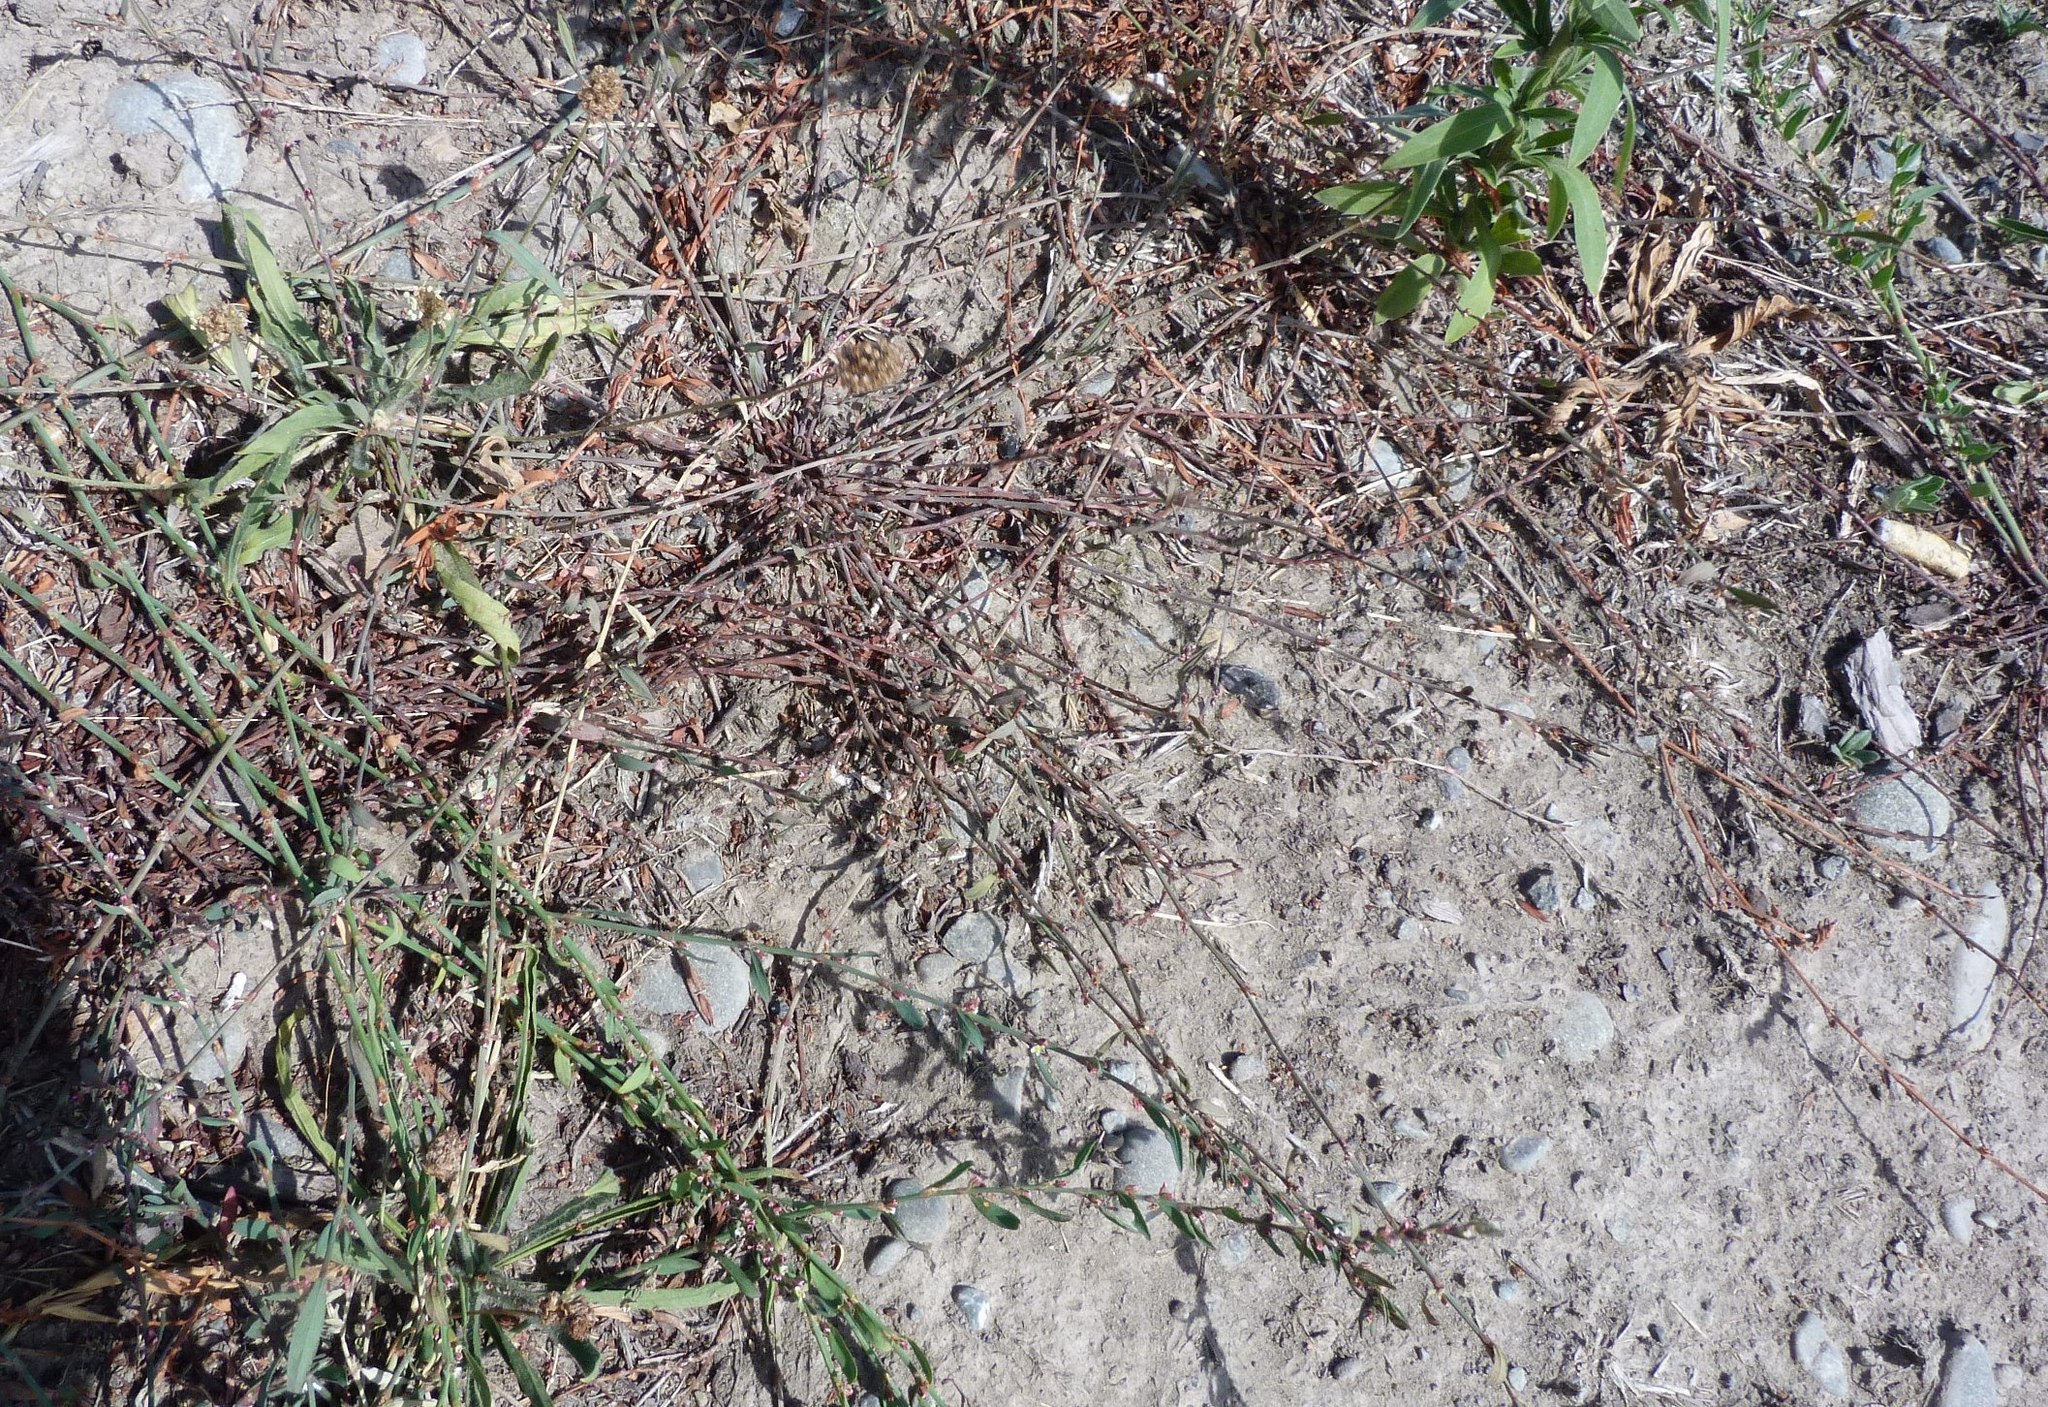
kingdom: Plantae
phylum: Tracheophyta
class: Magnoliopsida
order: Caryophyllales
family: Polygonaceae
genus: Polygonum
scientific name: Polygonum aviculare
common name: Prostrate knotweed
